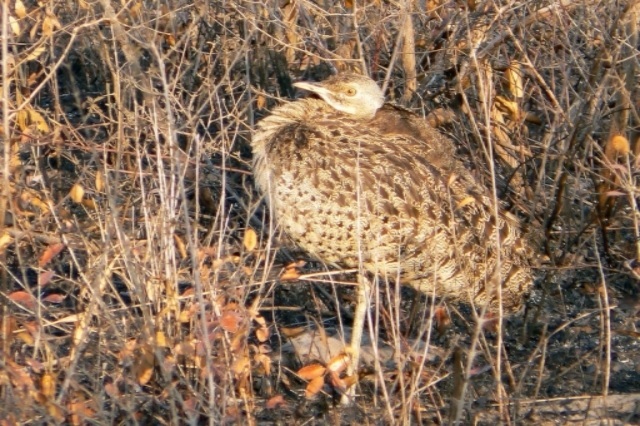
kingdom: Animalia
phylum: Chordata
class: Aves
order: Otidiformes
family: Otididae
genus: Lissotis
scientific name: Lissotis melanogaster
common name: Black-bellied bustard
